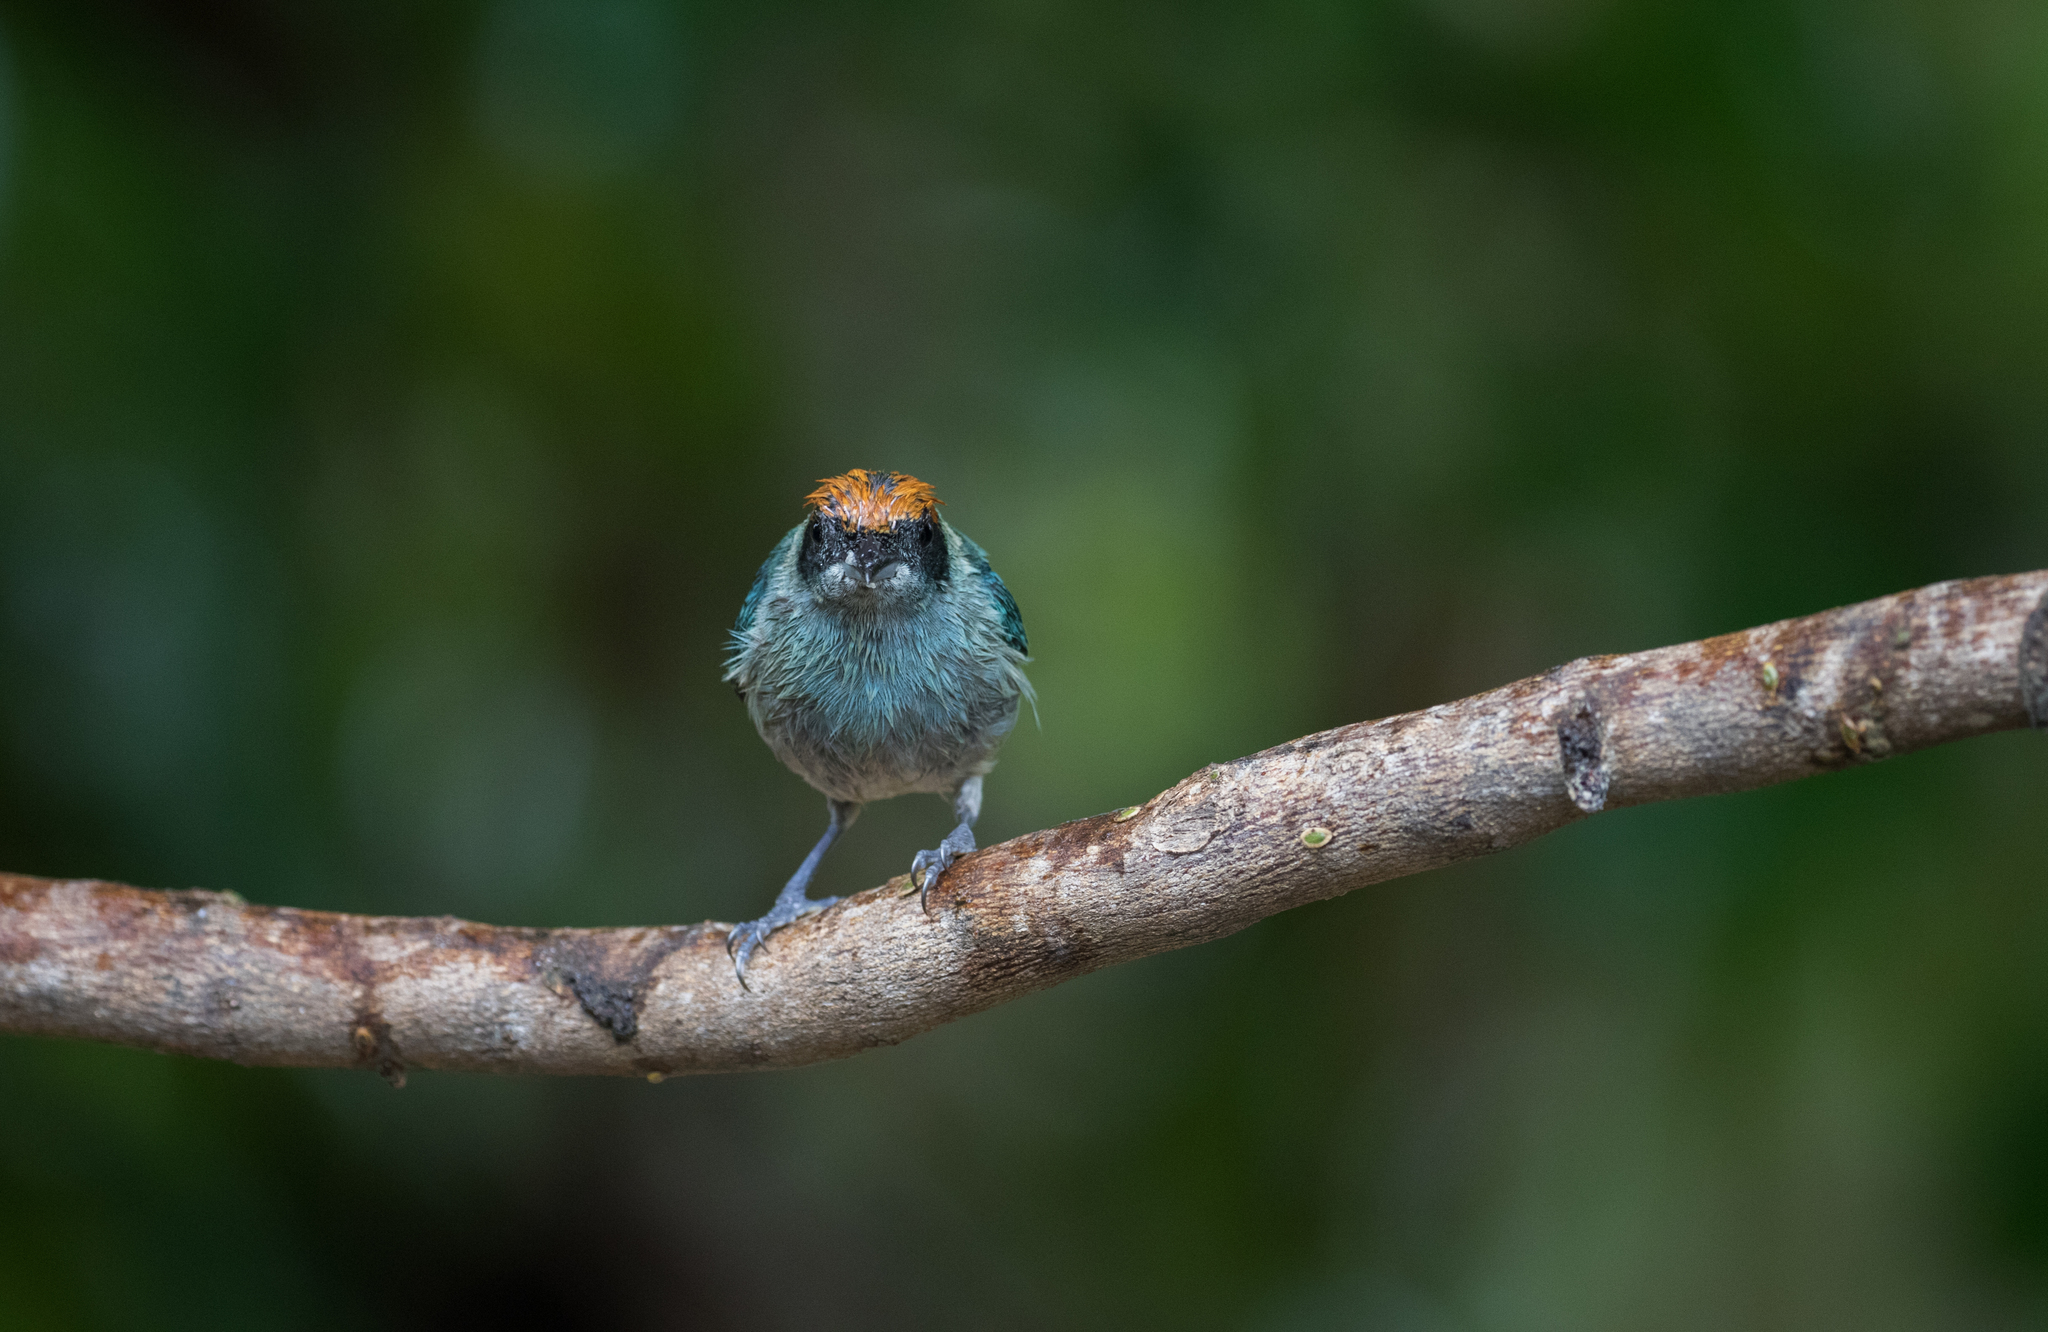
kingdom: Animalia
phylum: Chordata
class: Aves
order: Passeriformes
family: Thraupidae
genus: Stilpnia
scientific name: Stilpnia vitriolina
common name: Scrub tanager
